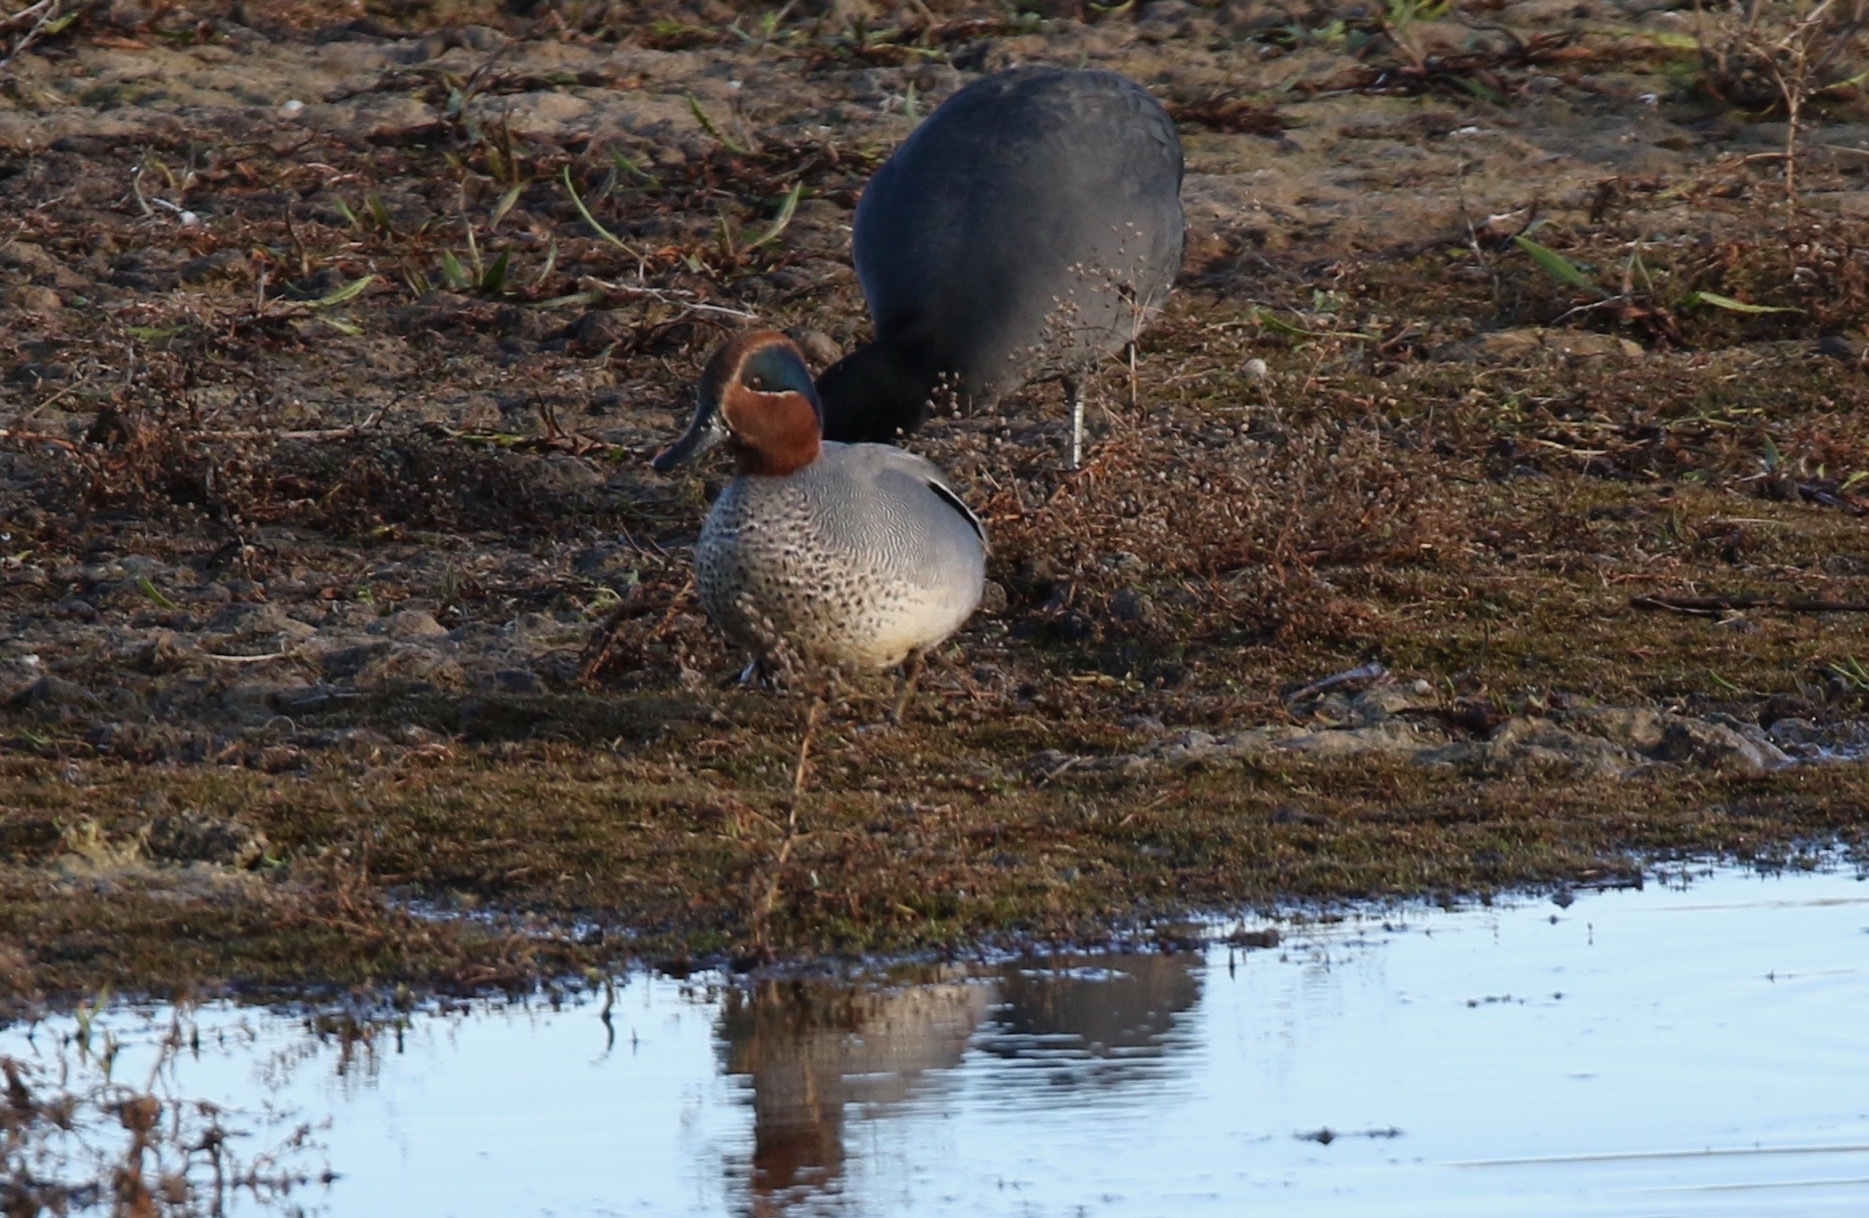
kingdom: Animalia
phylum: Chordata
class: Aves
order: Anseriformes
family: Anatidae
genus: Anas
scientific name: Anas crecca
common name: Eurasian teal
